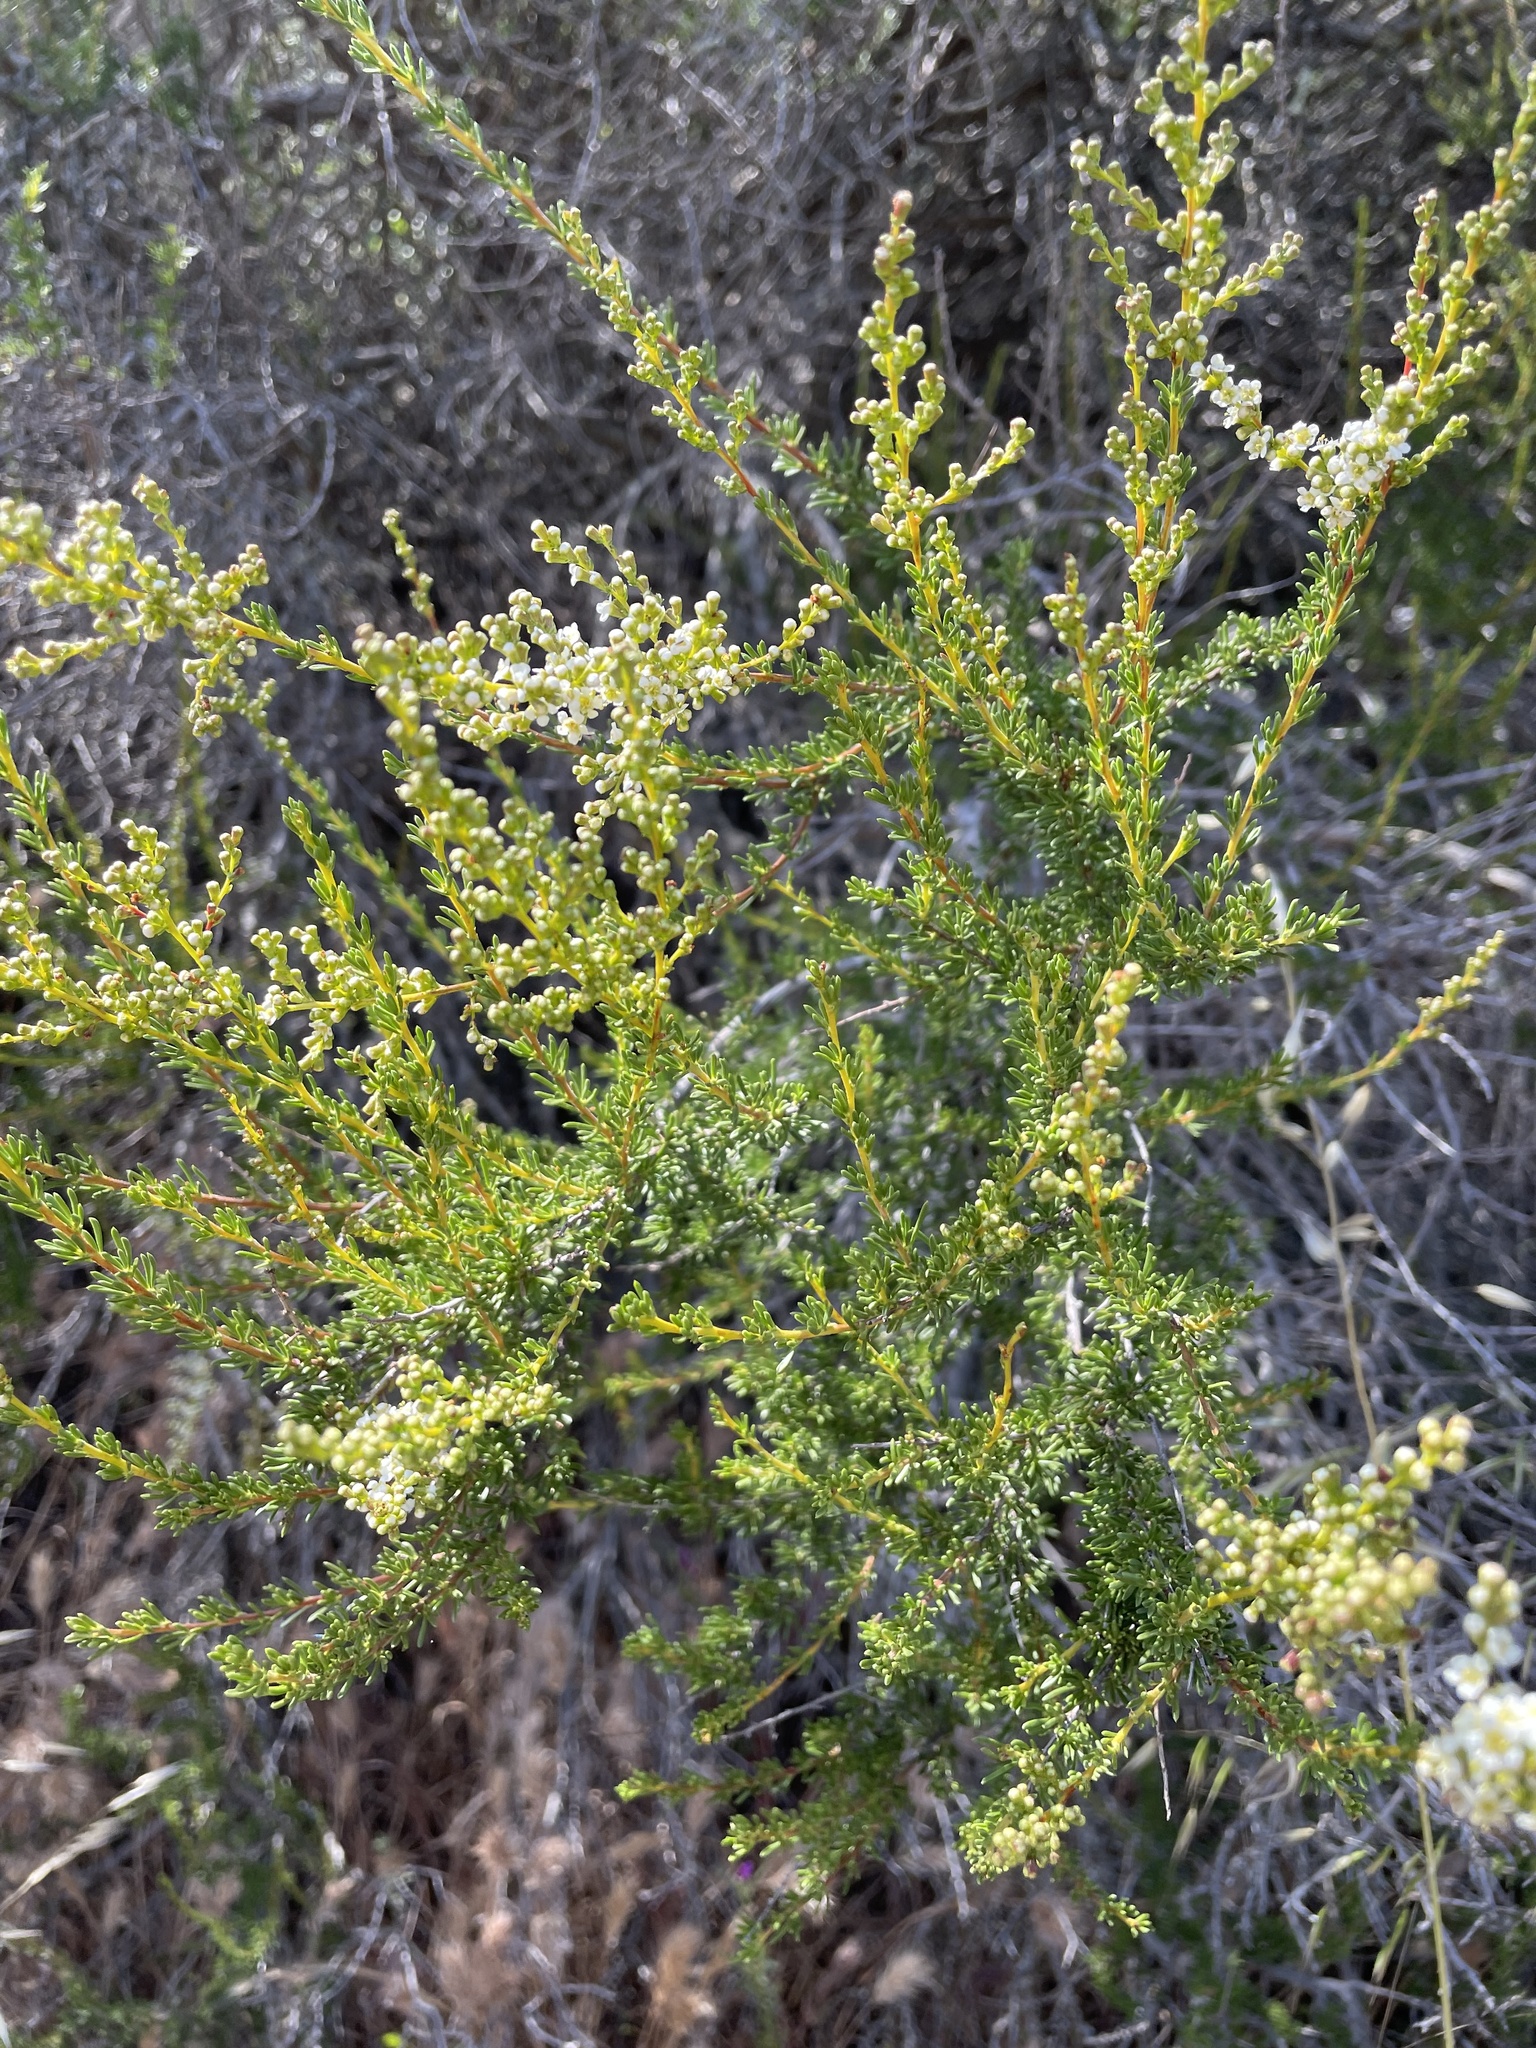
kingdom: Plantae
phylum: Tracheophyta
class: Magnoliopsida
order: Rosales
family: Rosaceae
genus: Adenostoma
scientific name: Adenostoma fasciculatum
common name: Chamise
